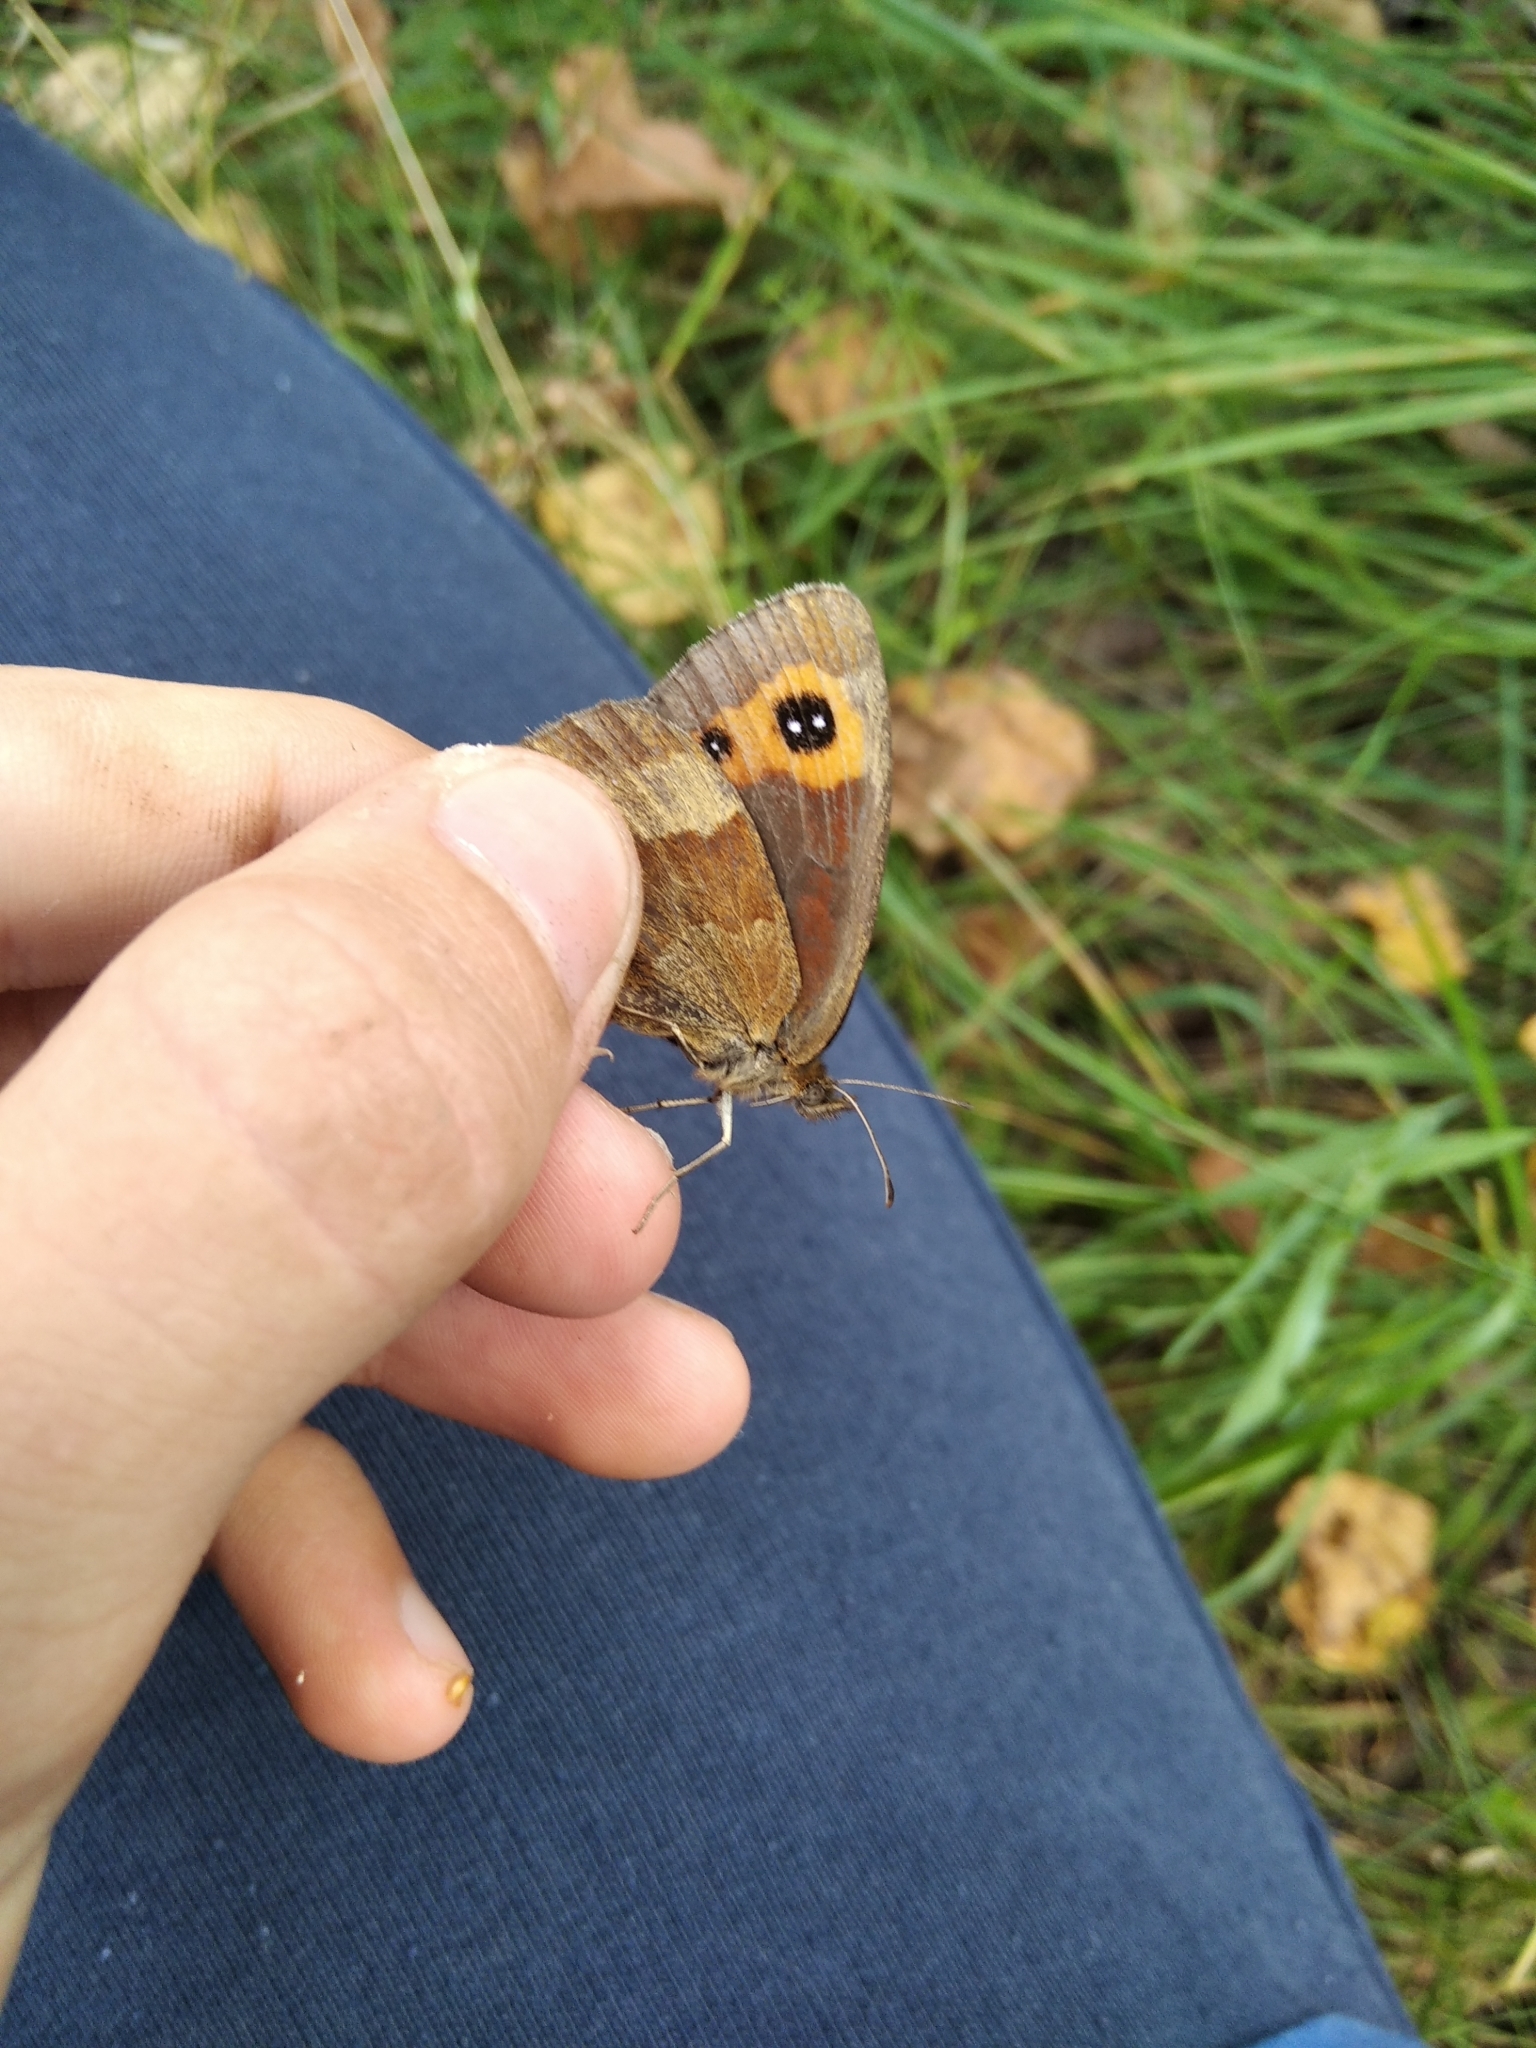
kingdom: Animalia
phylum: Arthropoda
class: Insecta
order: Lepidoptera
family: Nymphalidae
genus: Erebia
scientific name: Erebia aethiops
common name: Scotch argus
